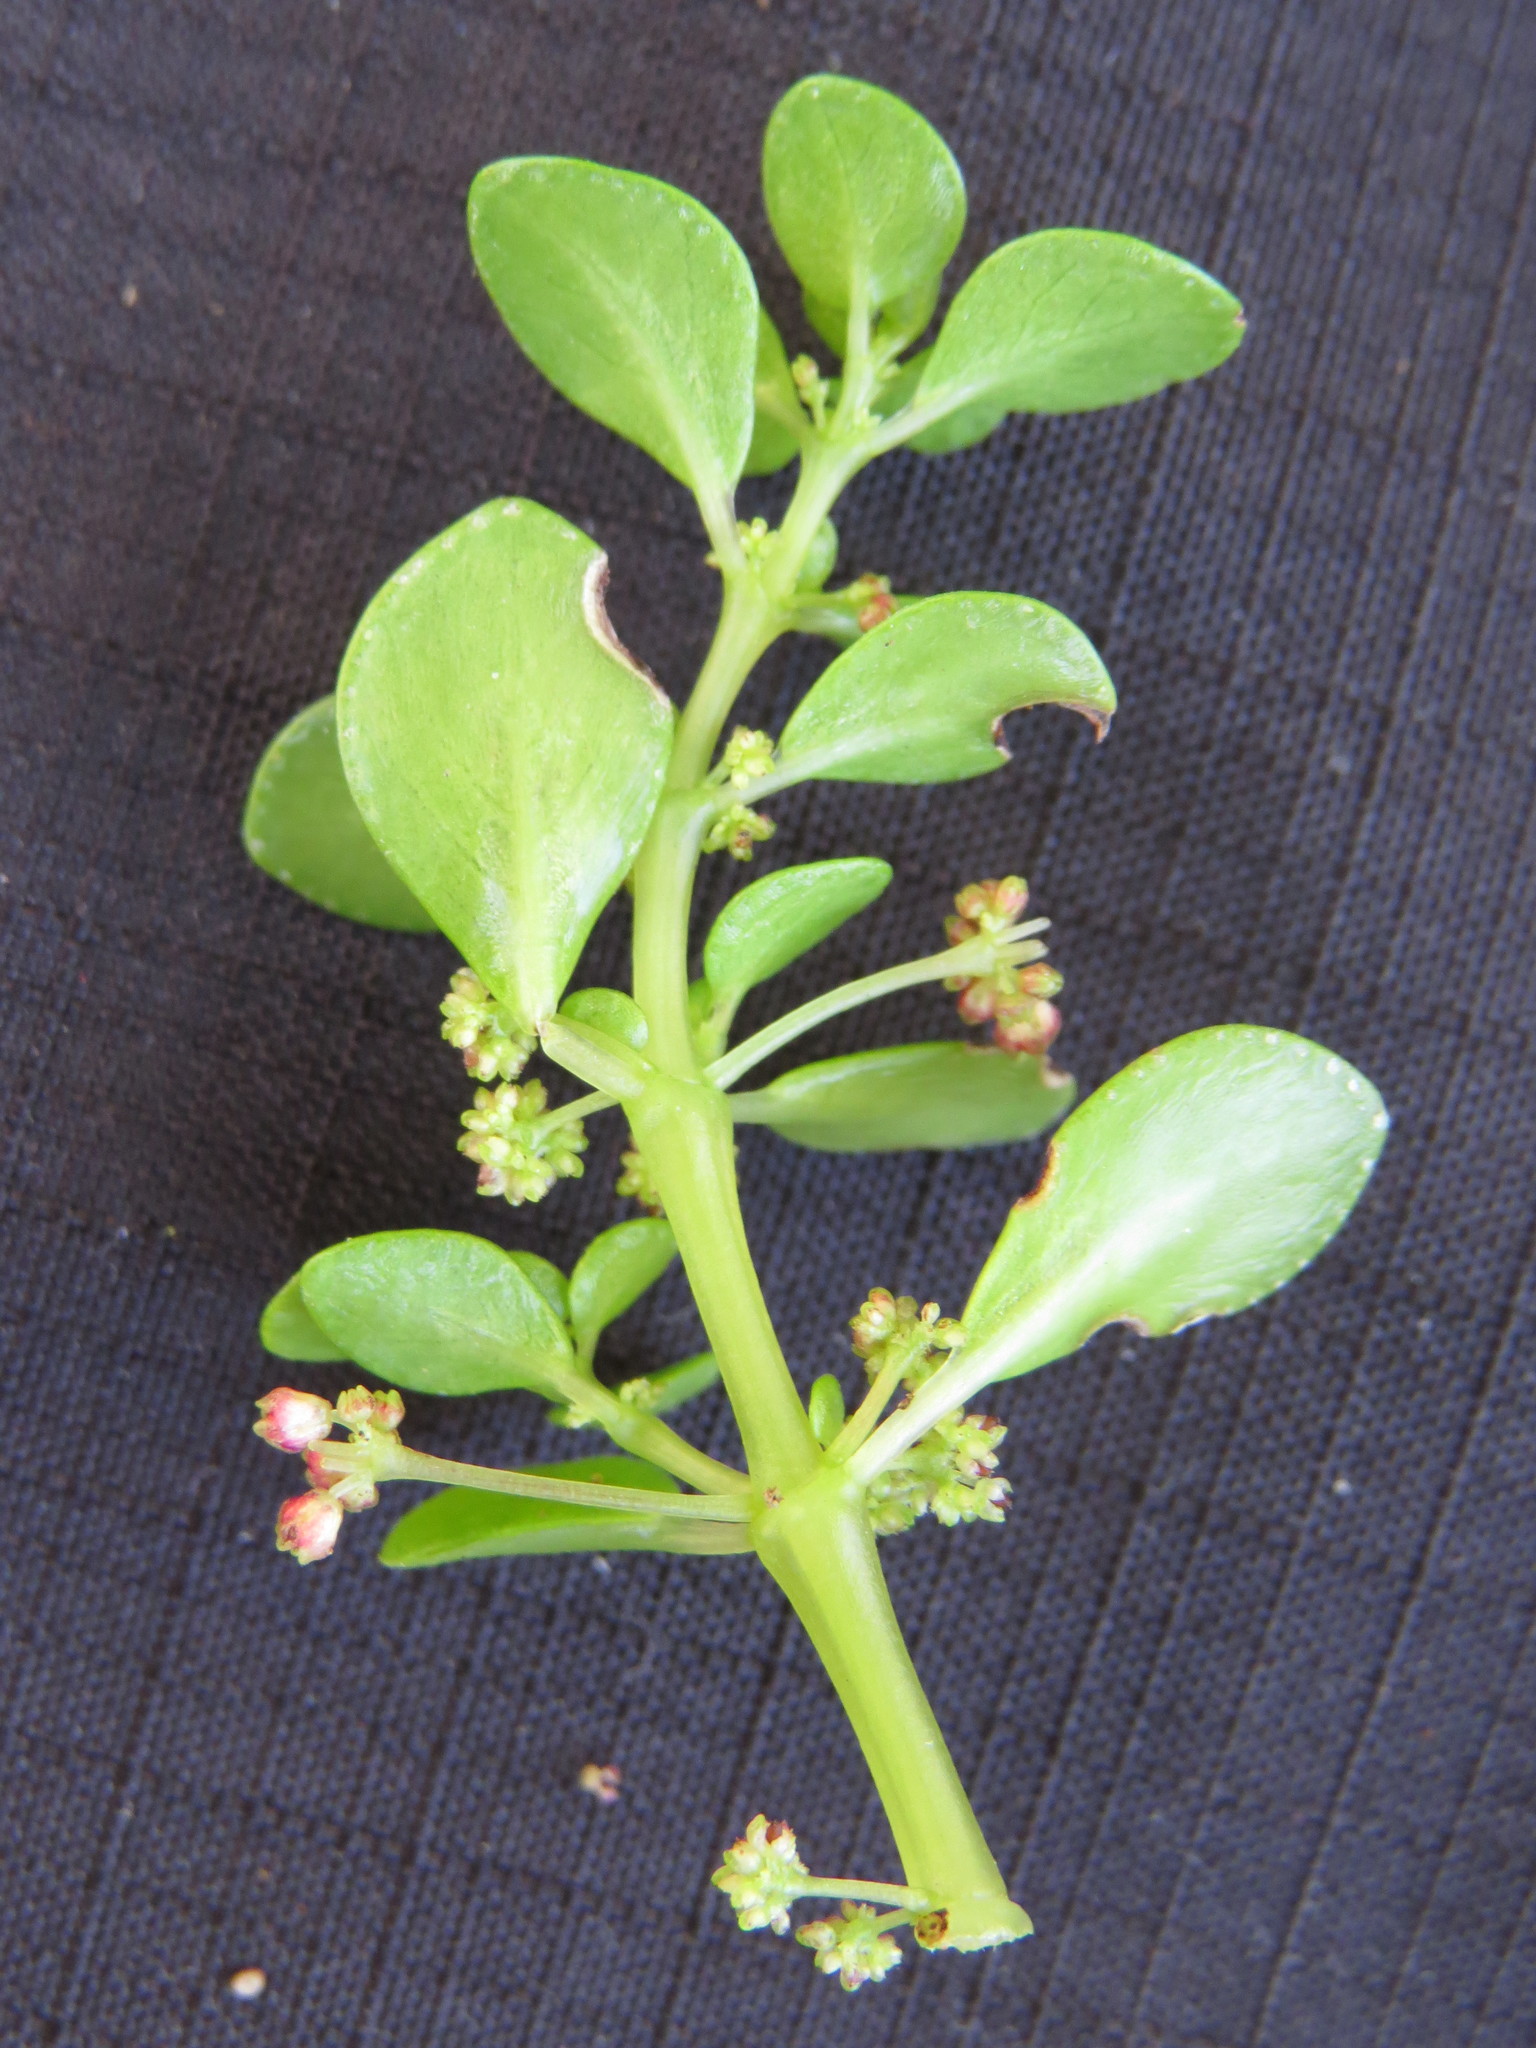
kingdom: Plantae
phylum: Tracheophyta
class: Magnoliopsida
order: Rosales
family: Urticaceae
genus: Pilea
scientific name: Pilea carautae
